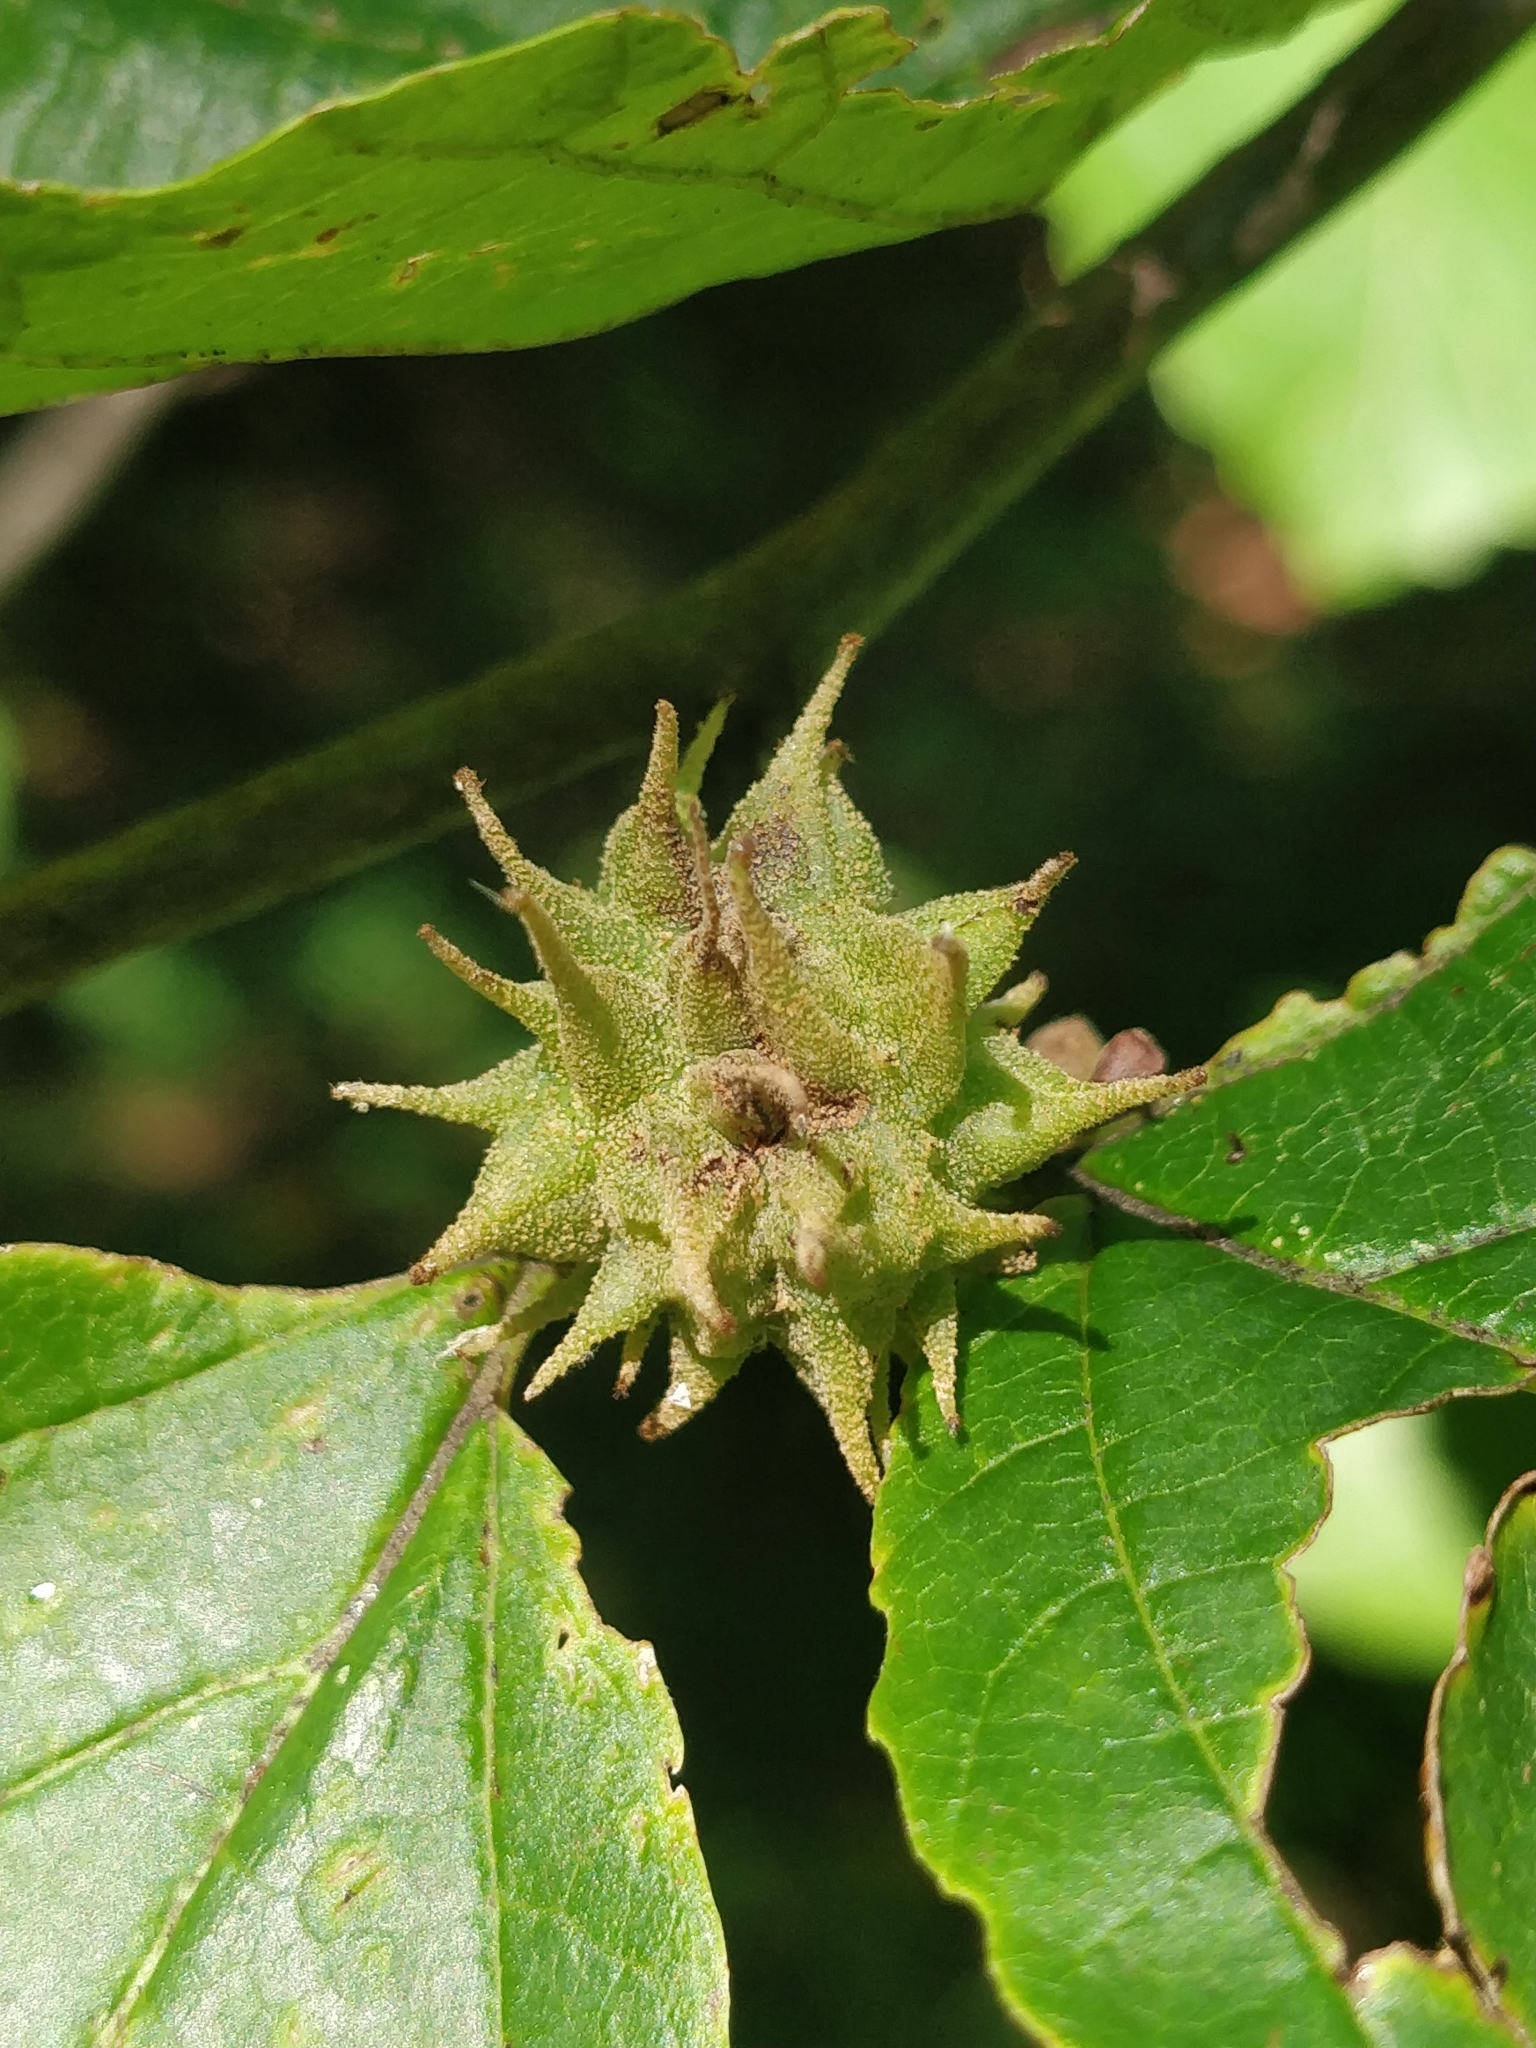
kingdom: Animalia
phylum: Arthropoda
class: Insecta
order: Hemiptera
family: Aphididae
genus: Hamamelistes
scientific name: Hamamelistes spinosus
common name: Witch hazel gall aphid
